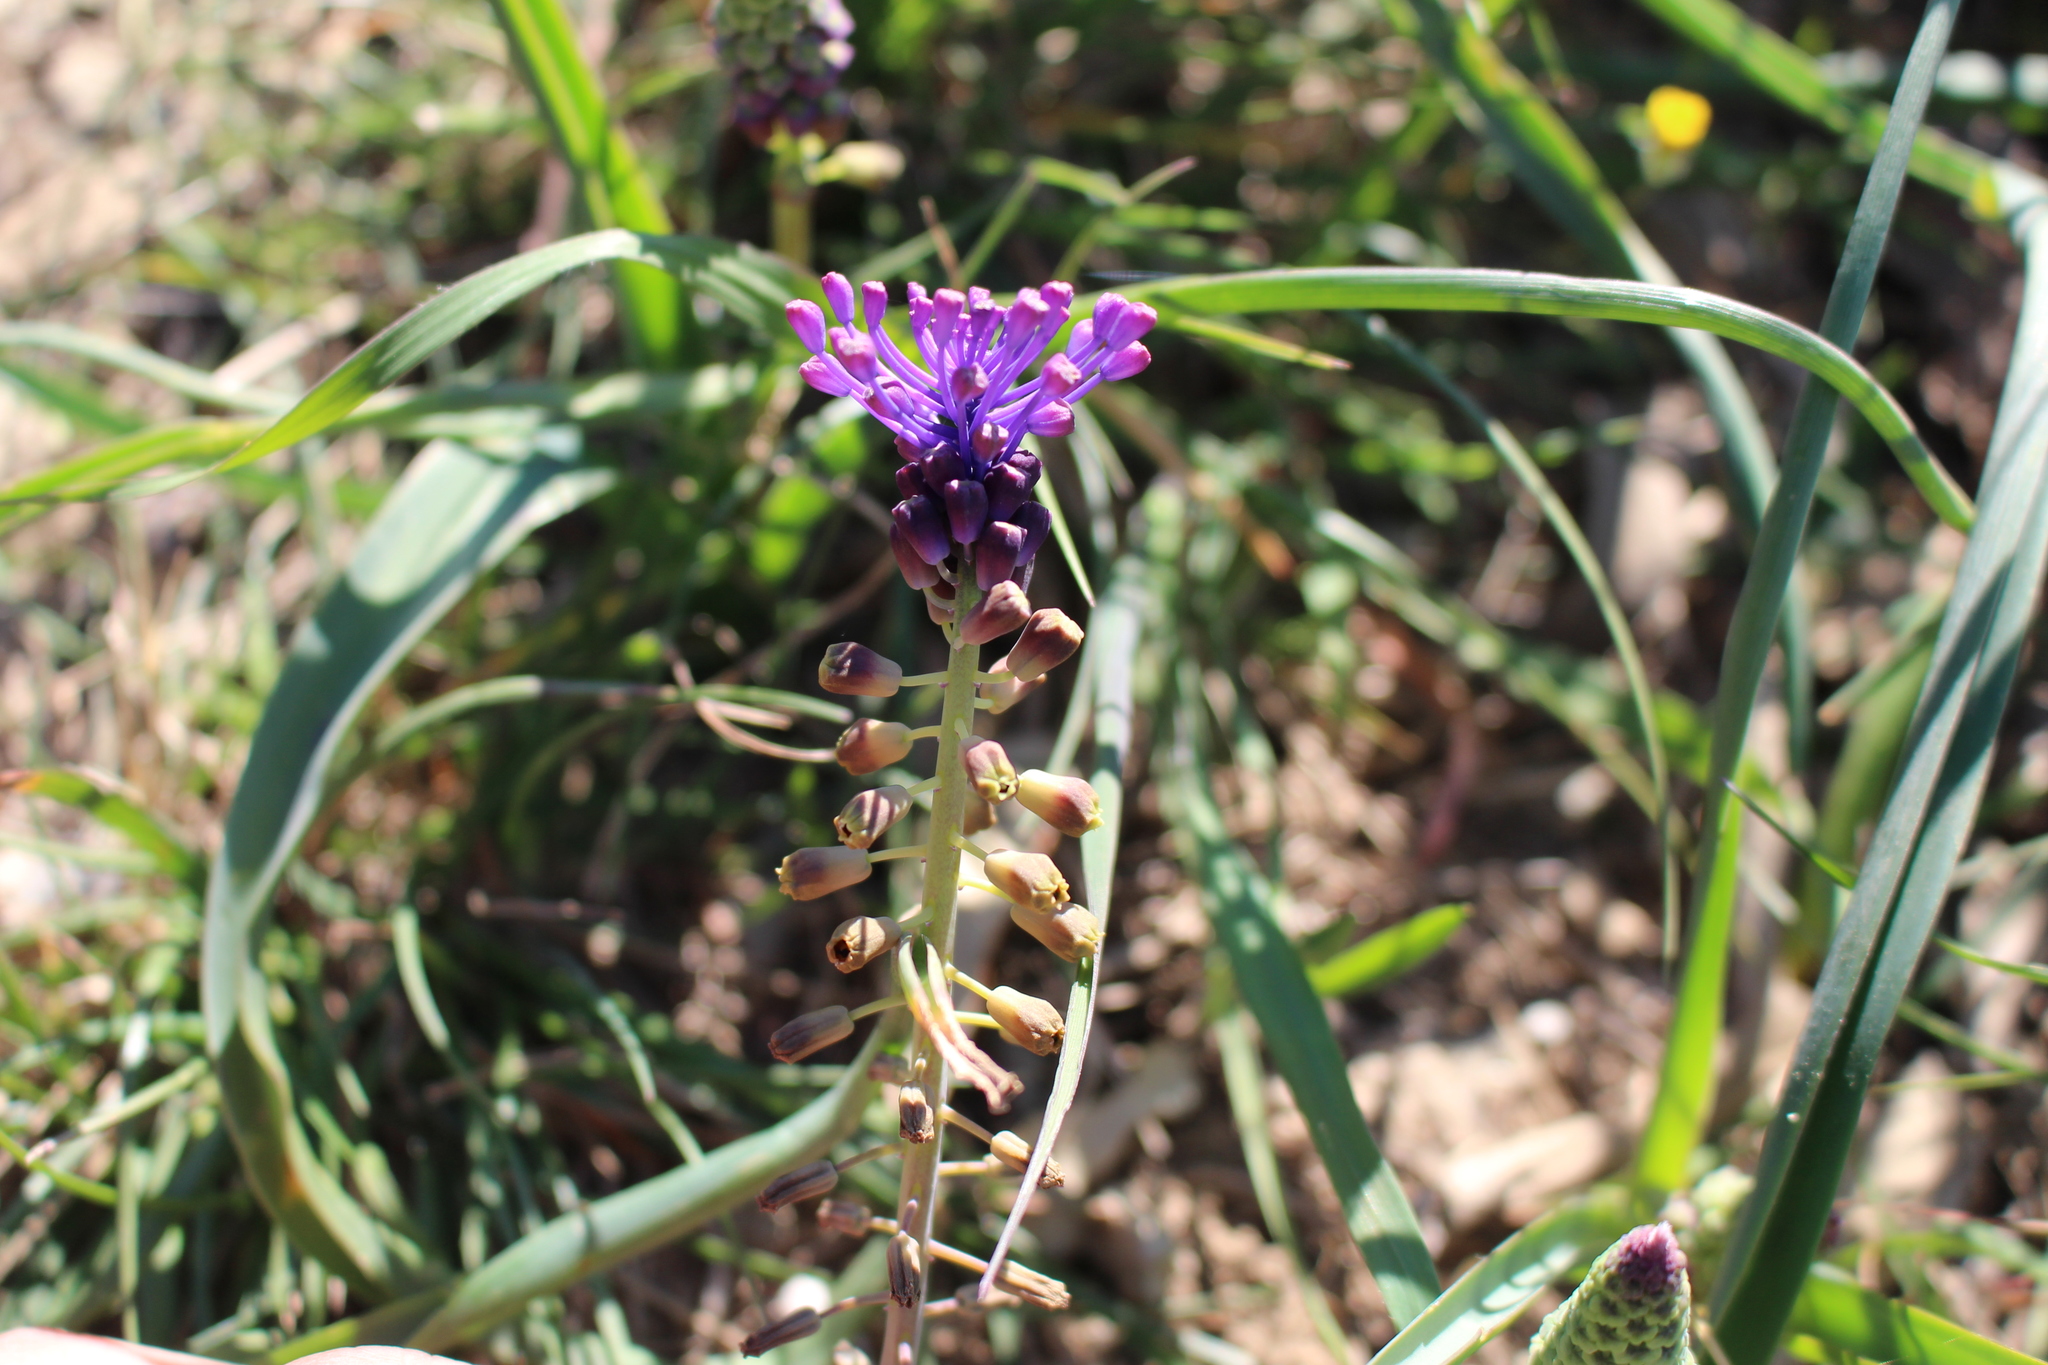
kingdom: Plantae
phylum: Tracheophyta
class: Liliopsida
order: Asparagales
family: Asparagaceae
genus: Muscari
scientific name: Muscari comosum
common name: Tassel hyacinth
